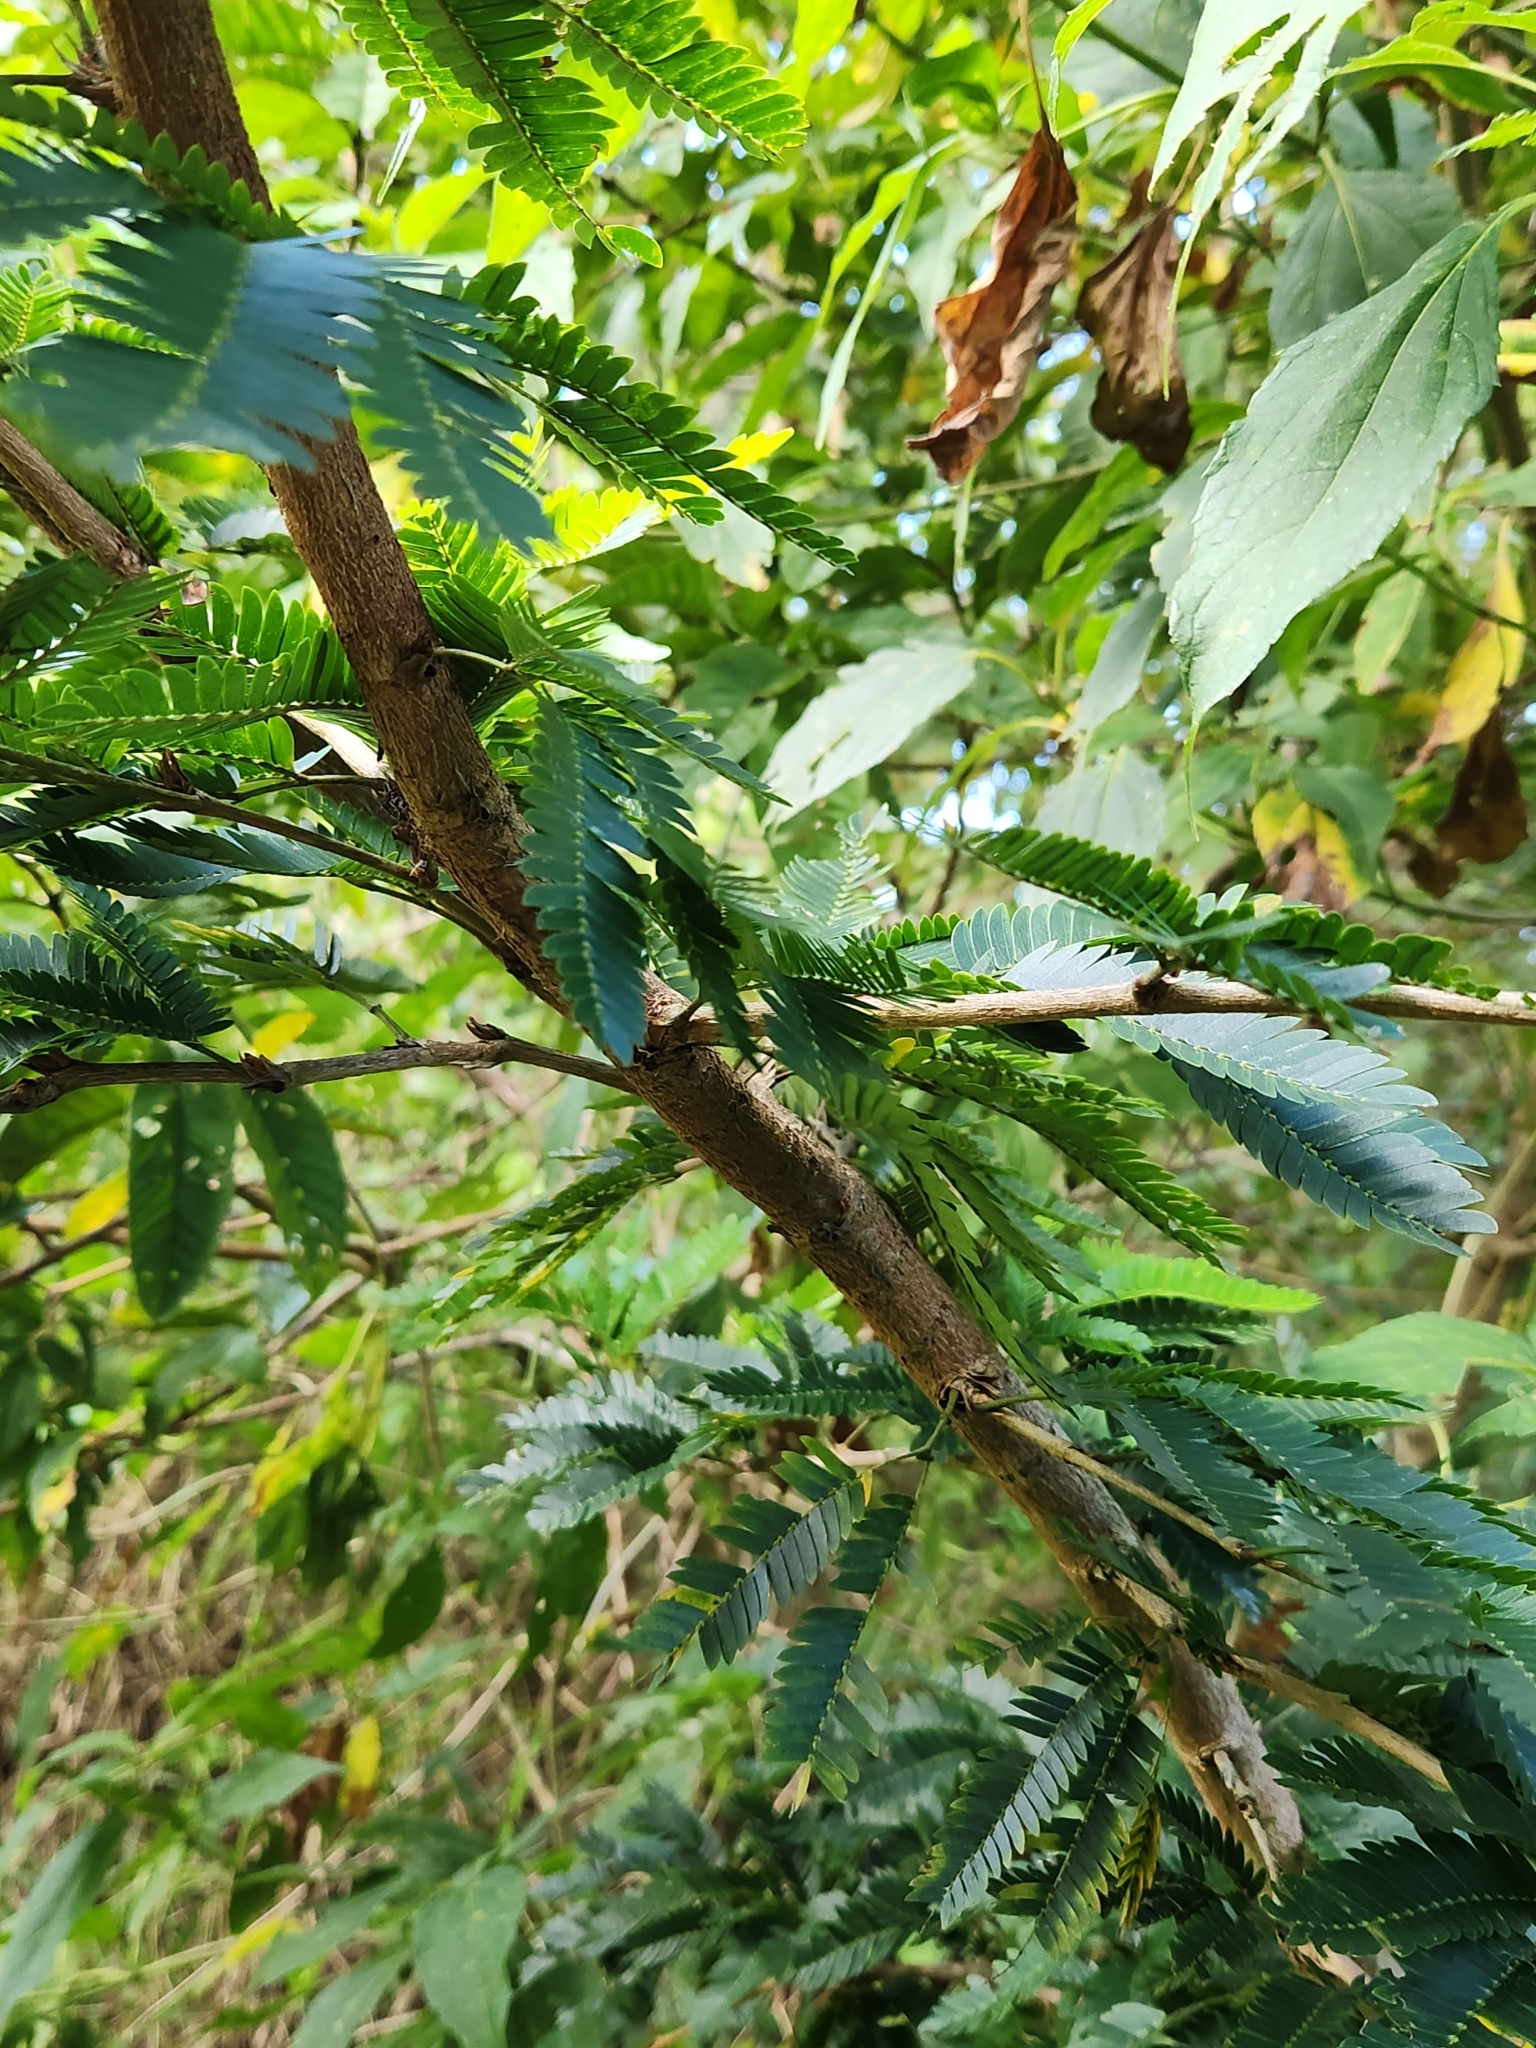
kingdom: Plantae
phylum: Tracheophyta
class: Magnoliopsida
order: Fabales
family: Fabaceae
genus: Calliandra
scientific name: Calliandra bijuga
